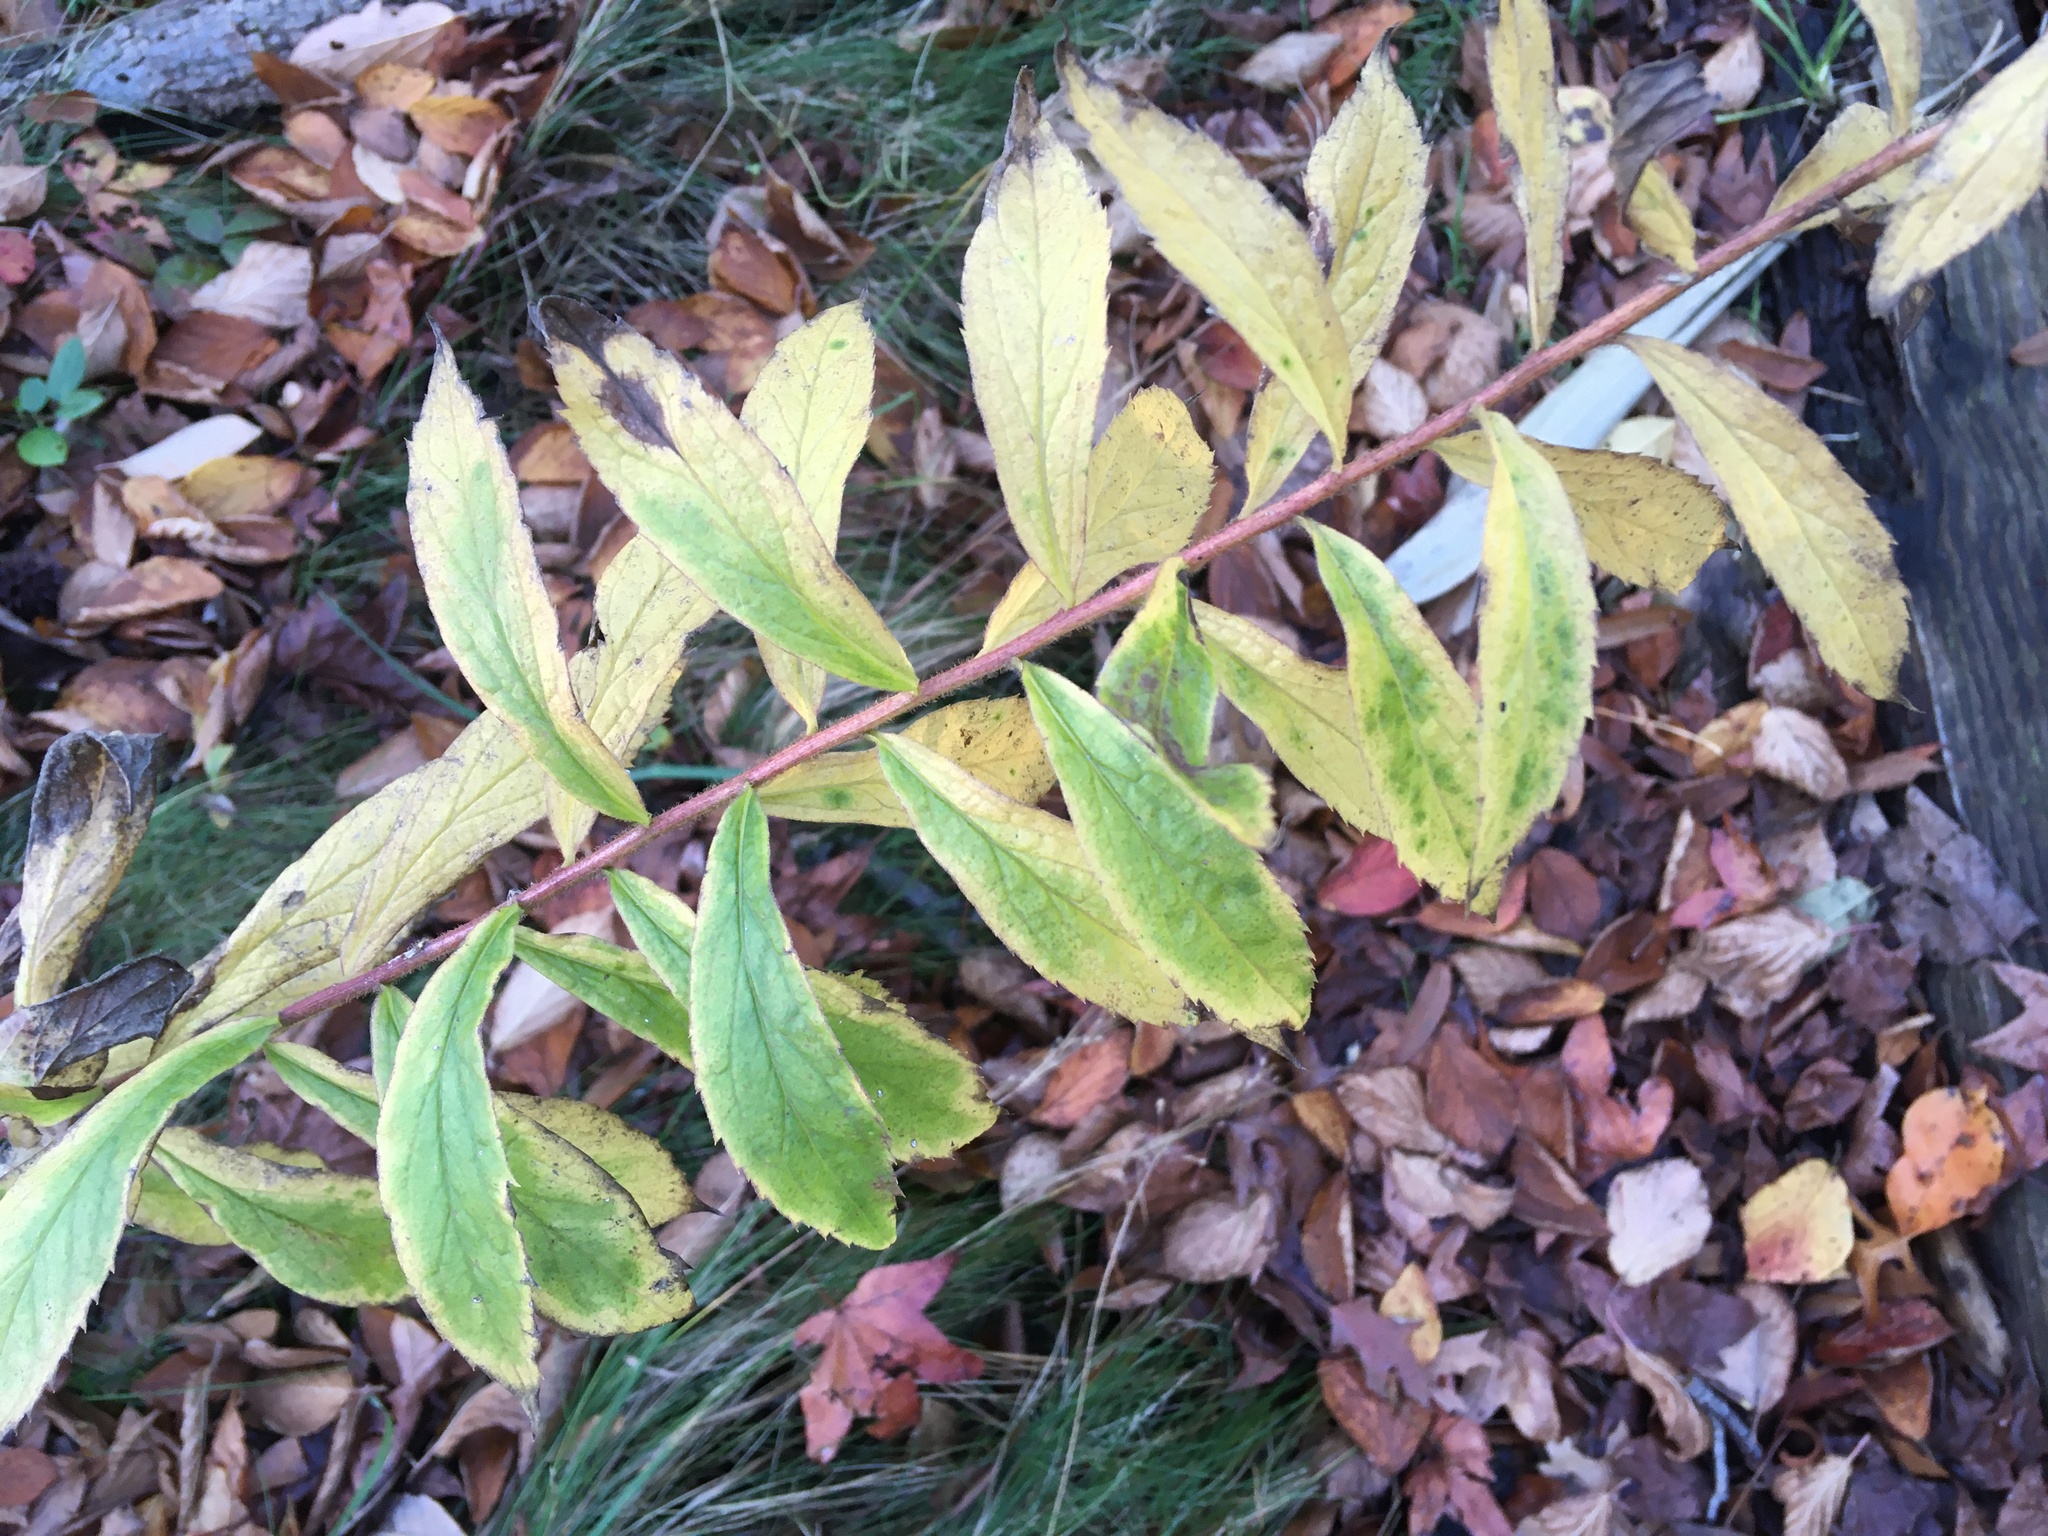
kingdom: Plantae
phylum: Tracheophyta
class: Magnoliopsida
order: Asterales
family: Asteraceae
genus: Solidago
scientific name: Solidago rugosa
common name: Rough-stemmed goldenrod
